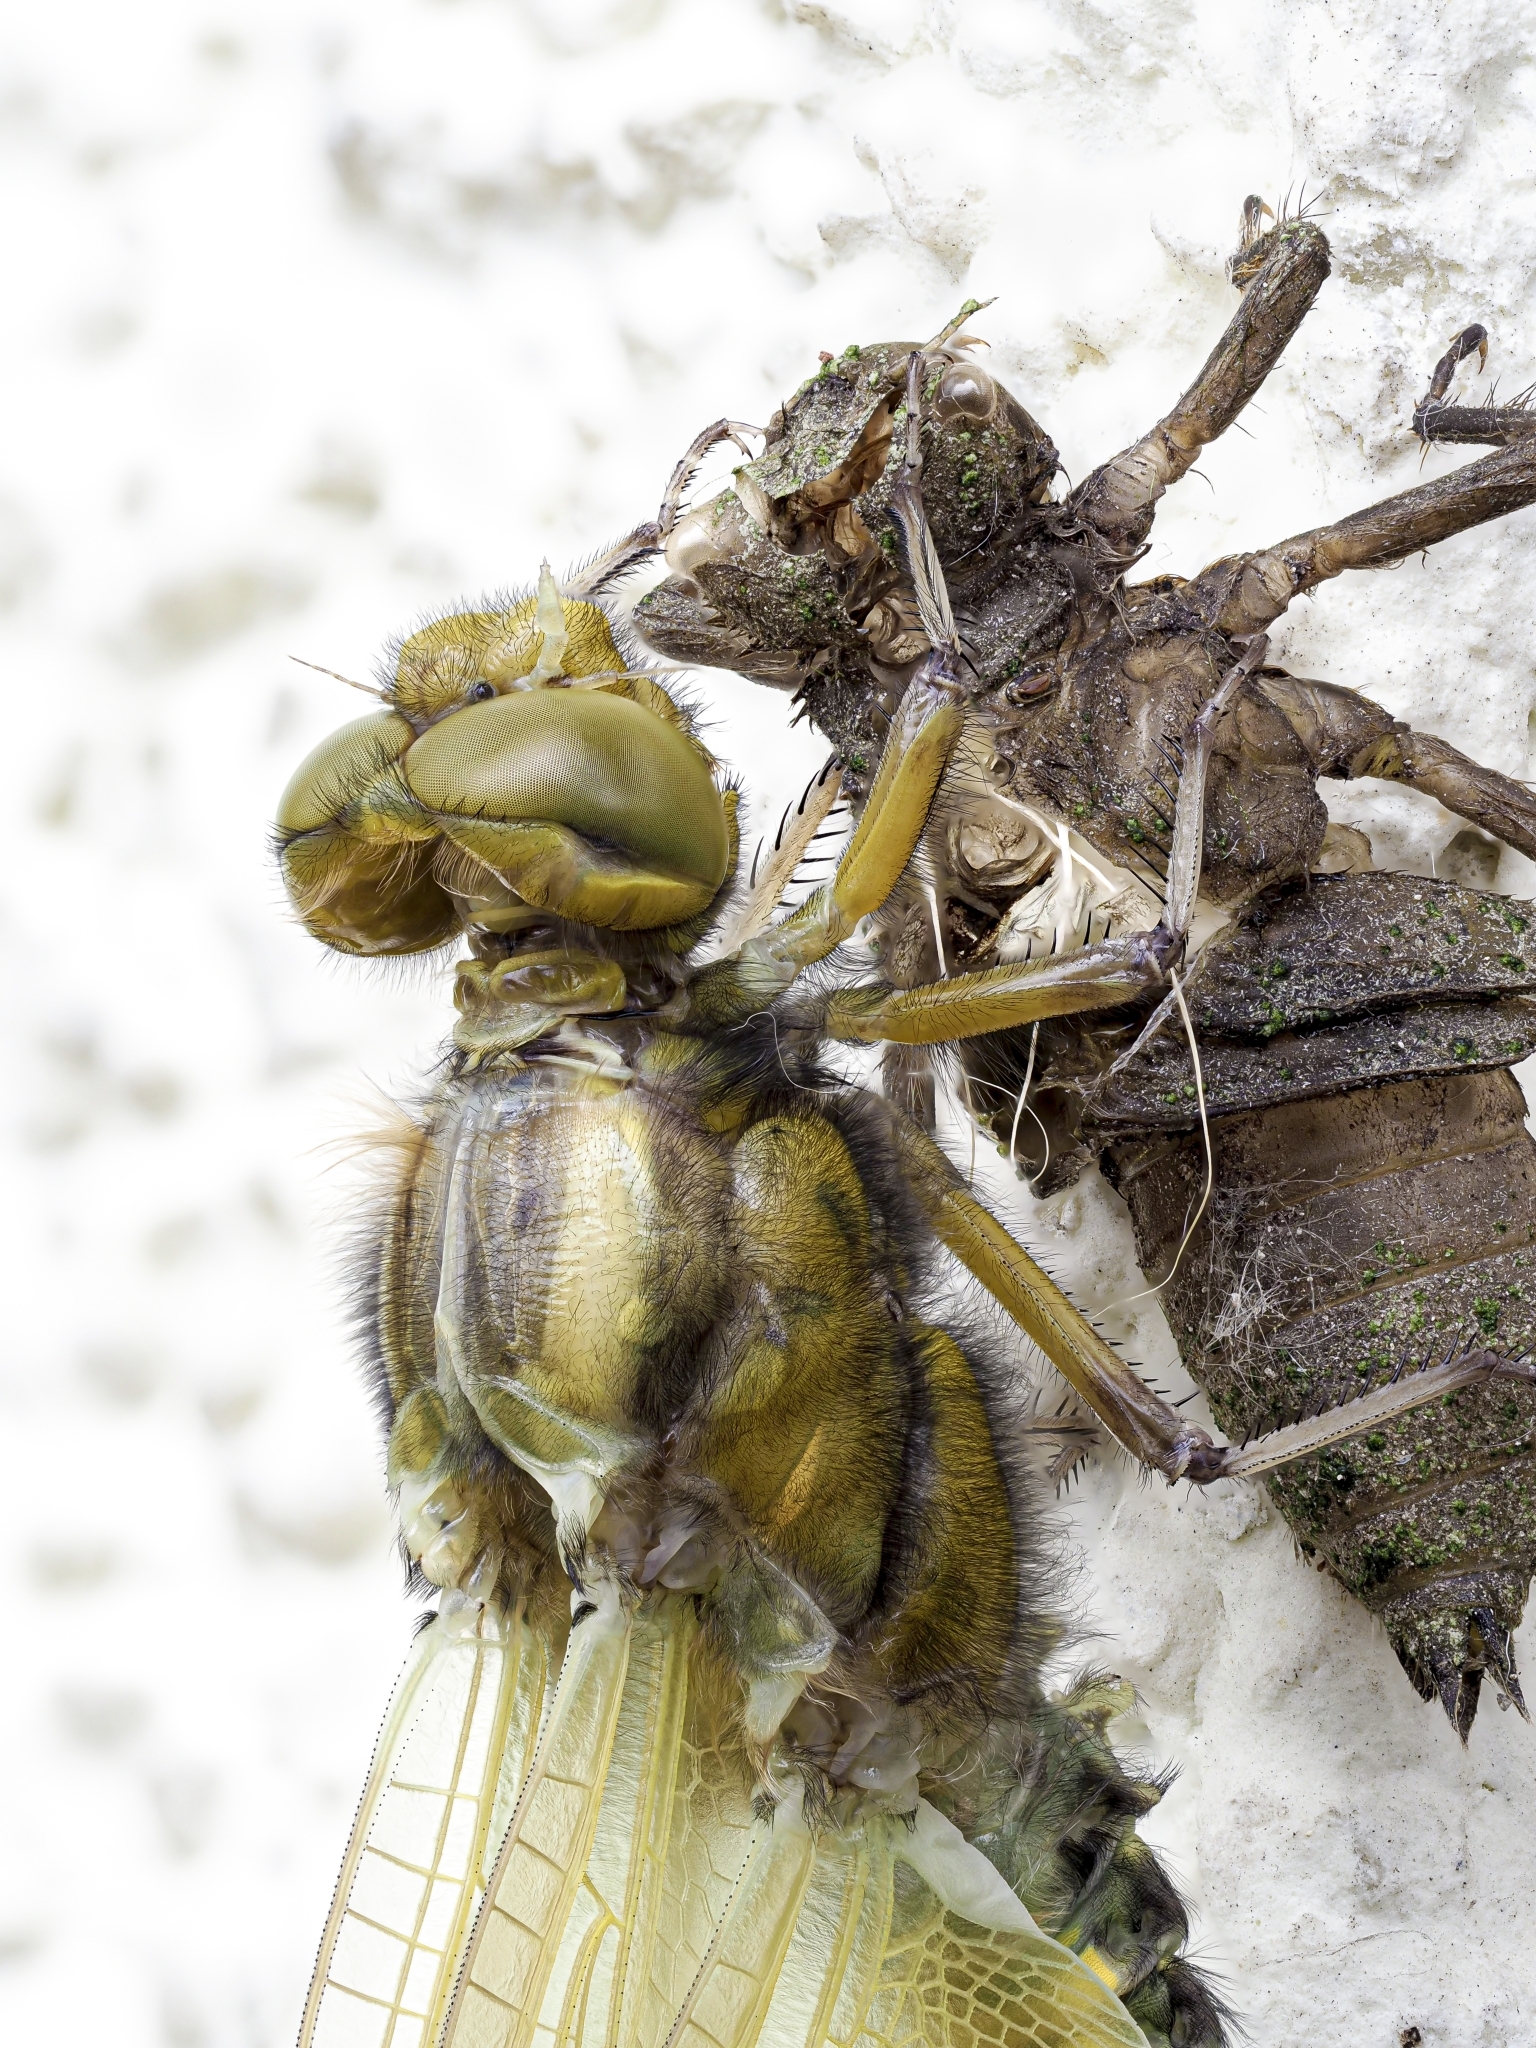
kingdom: Animalia
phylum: Arthropoda
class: Insecta
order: Odonata
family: Libellulidae
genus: Libellula
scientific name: Libellula depressa
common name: Broad-bodied chaser
